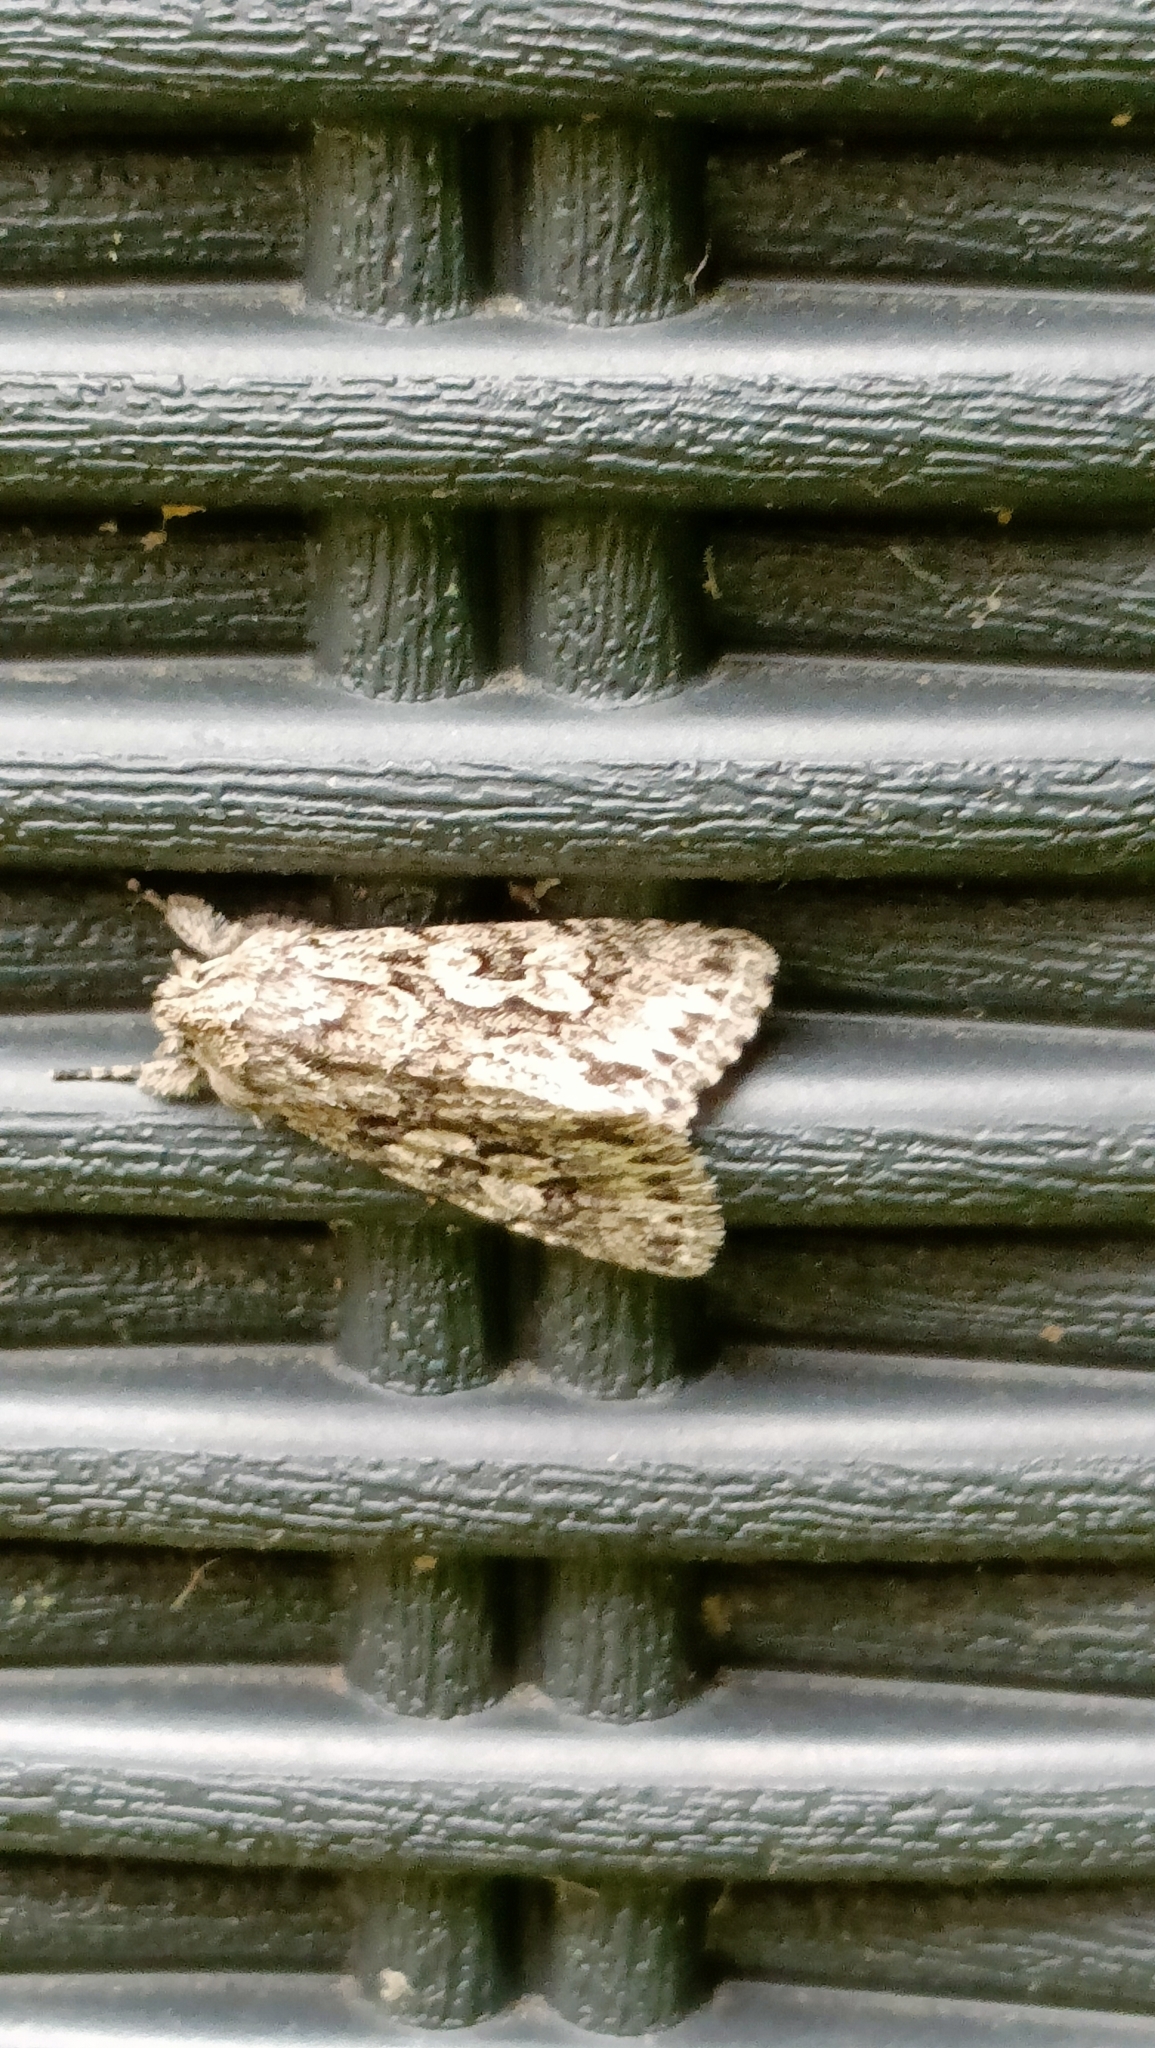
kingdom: Animalia
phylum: Arthropoda
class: Insecta
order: Lepidoptera
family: Noctuidae
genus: Xylocampa
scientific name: Xylocampa areola
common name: Early grey
